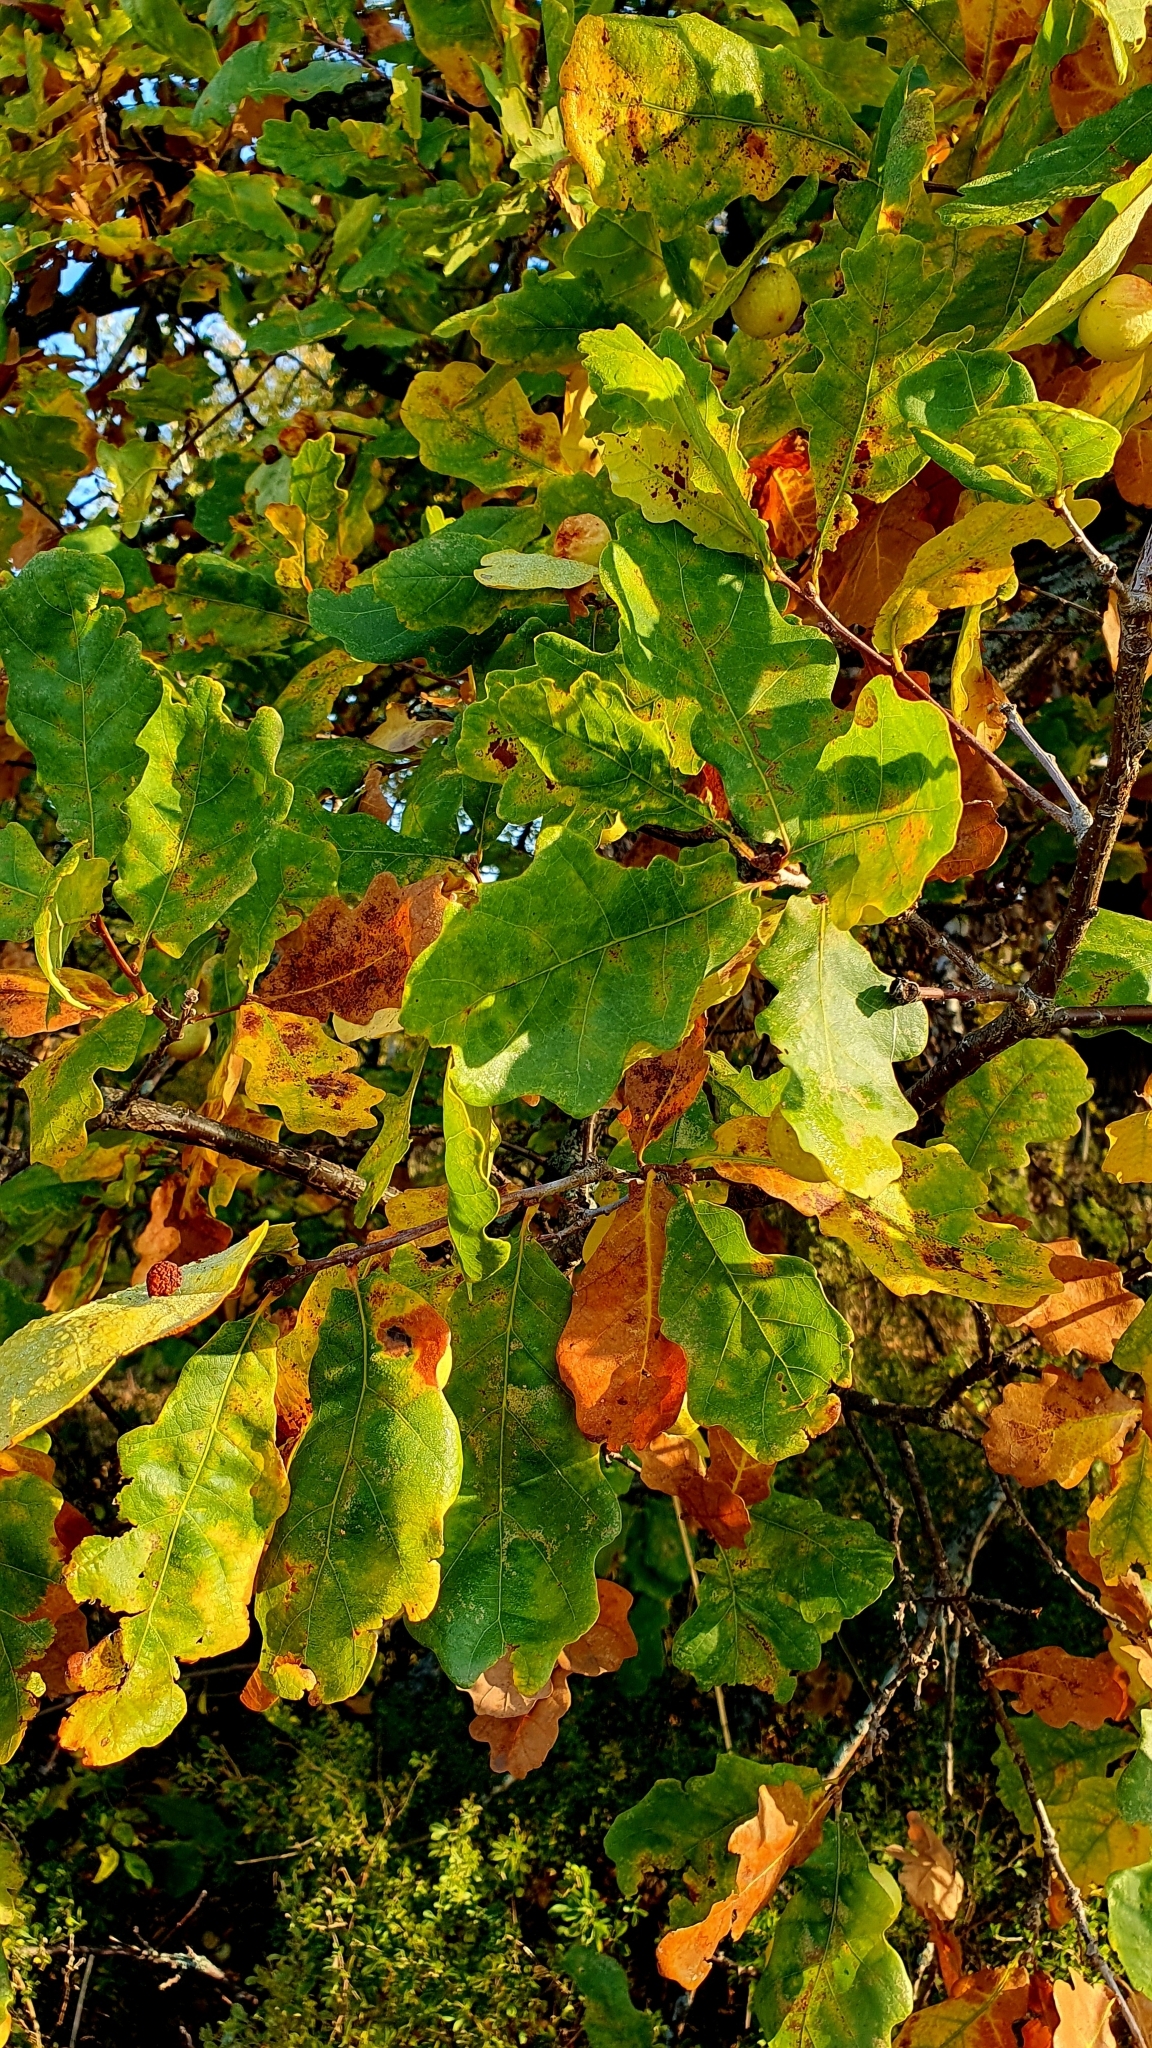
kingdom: Plantae
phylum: Tracheophyta
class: Magnoliopsida
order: Fagales
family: Fagaceae
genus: Quercus
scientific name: Quercus robur
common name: Pedunculate oak
